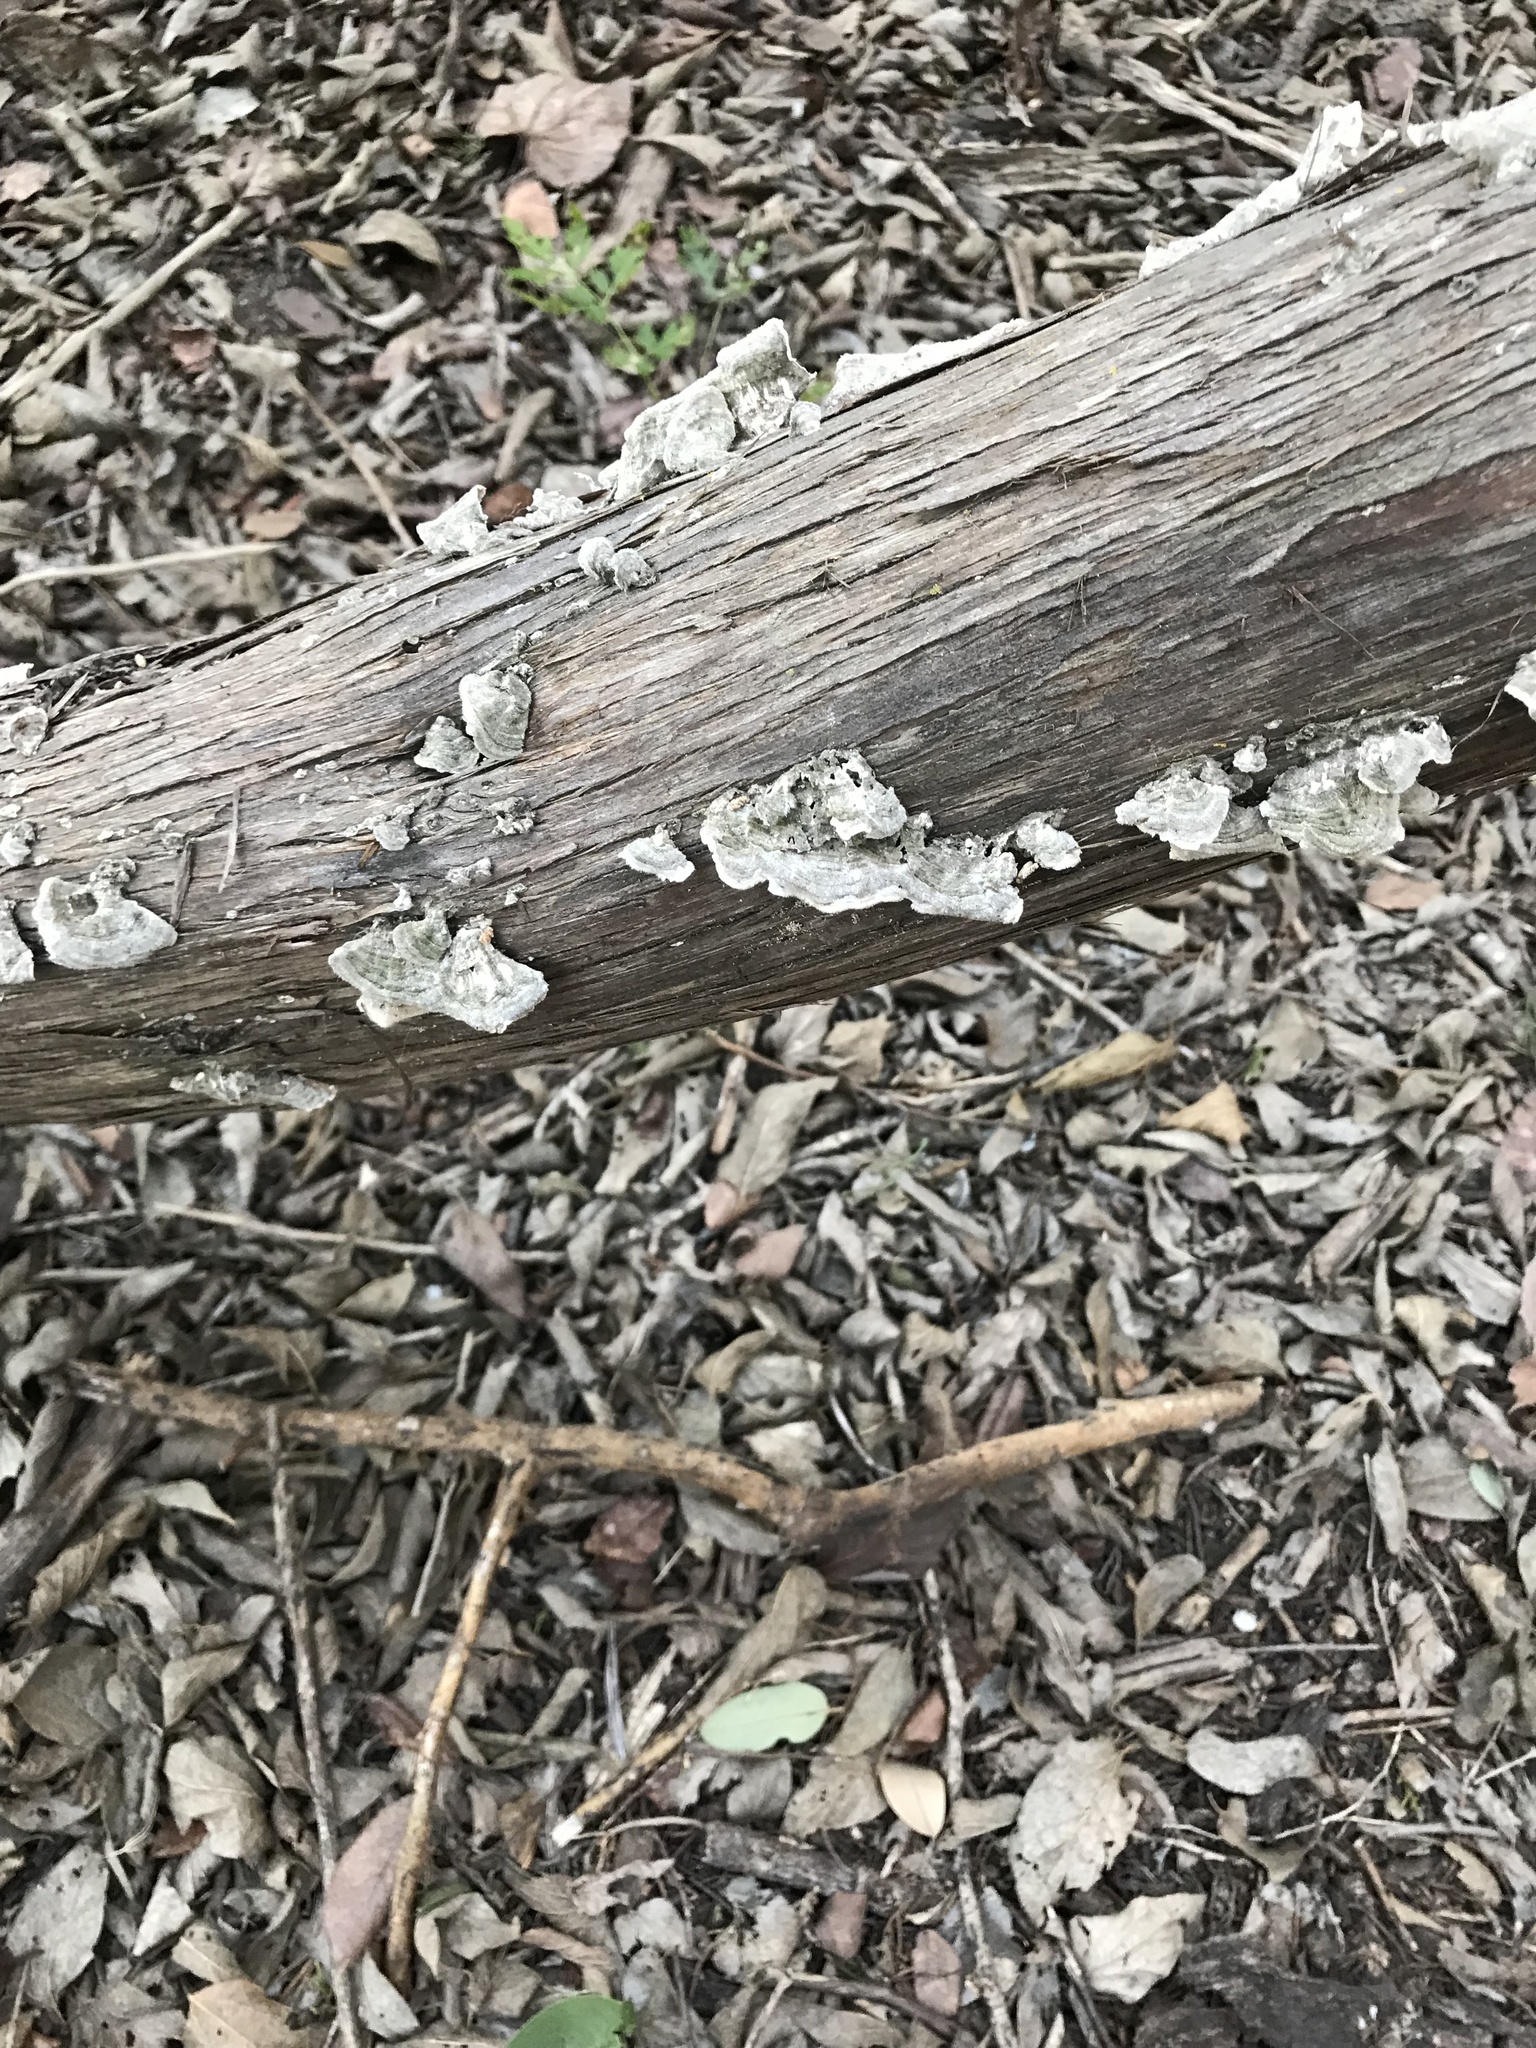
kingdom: Fungi
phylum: Basidiomycota
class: Agaricomycetes
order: Polyporales
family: Polyporaceae
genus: Trametes
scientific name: Trametes villosa
